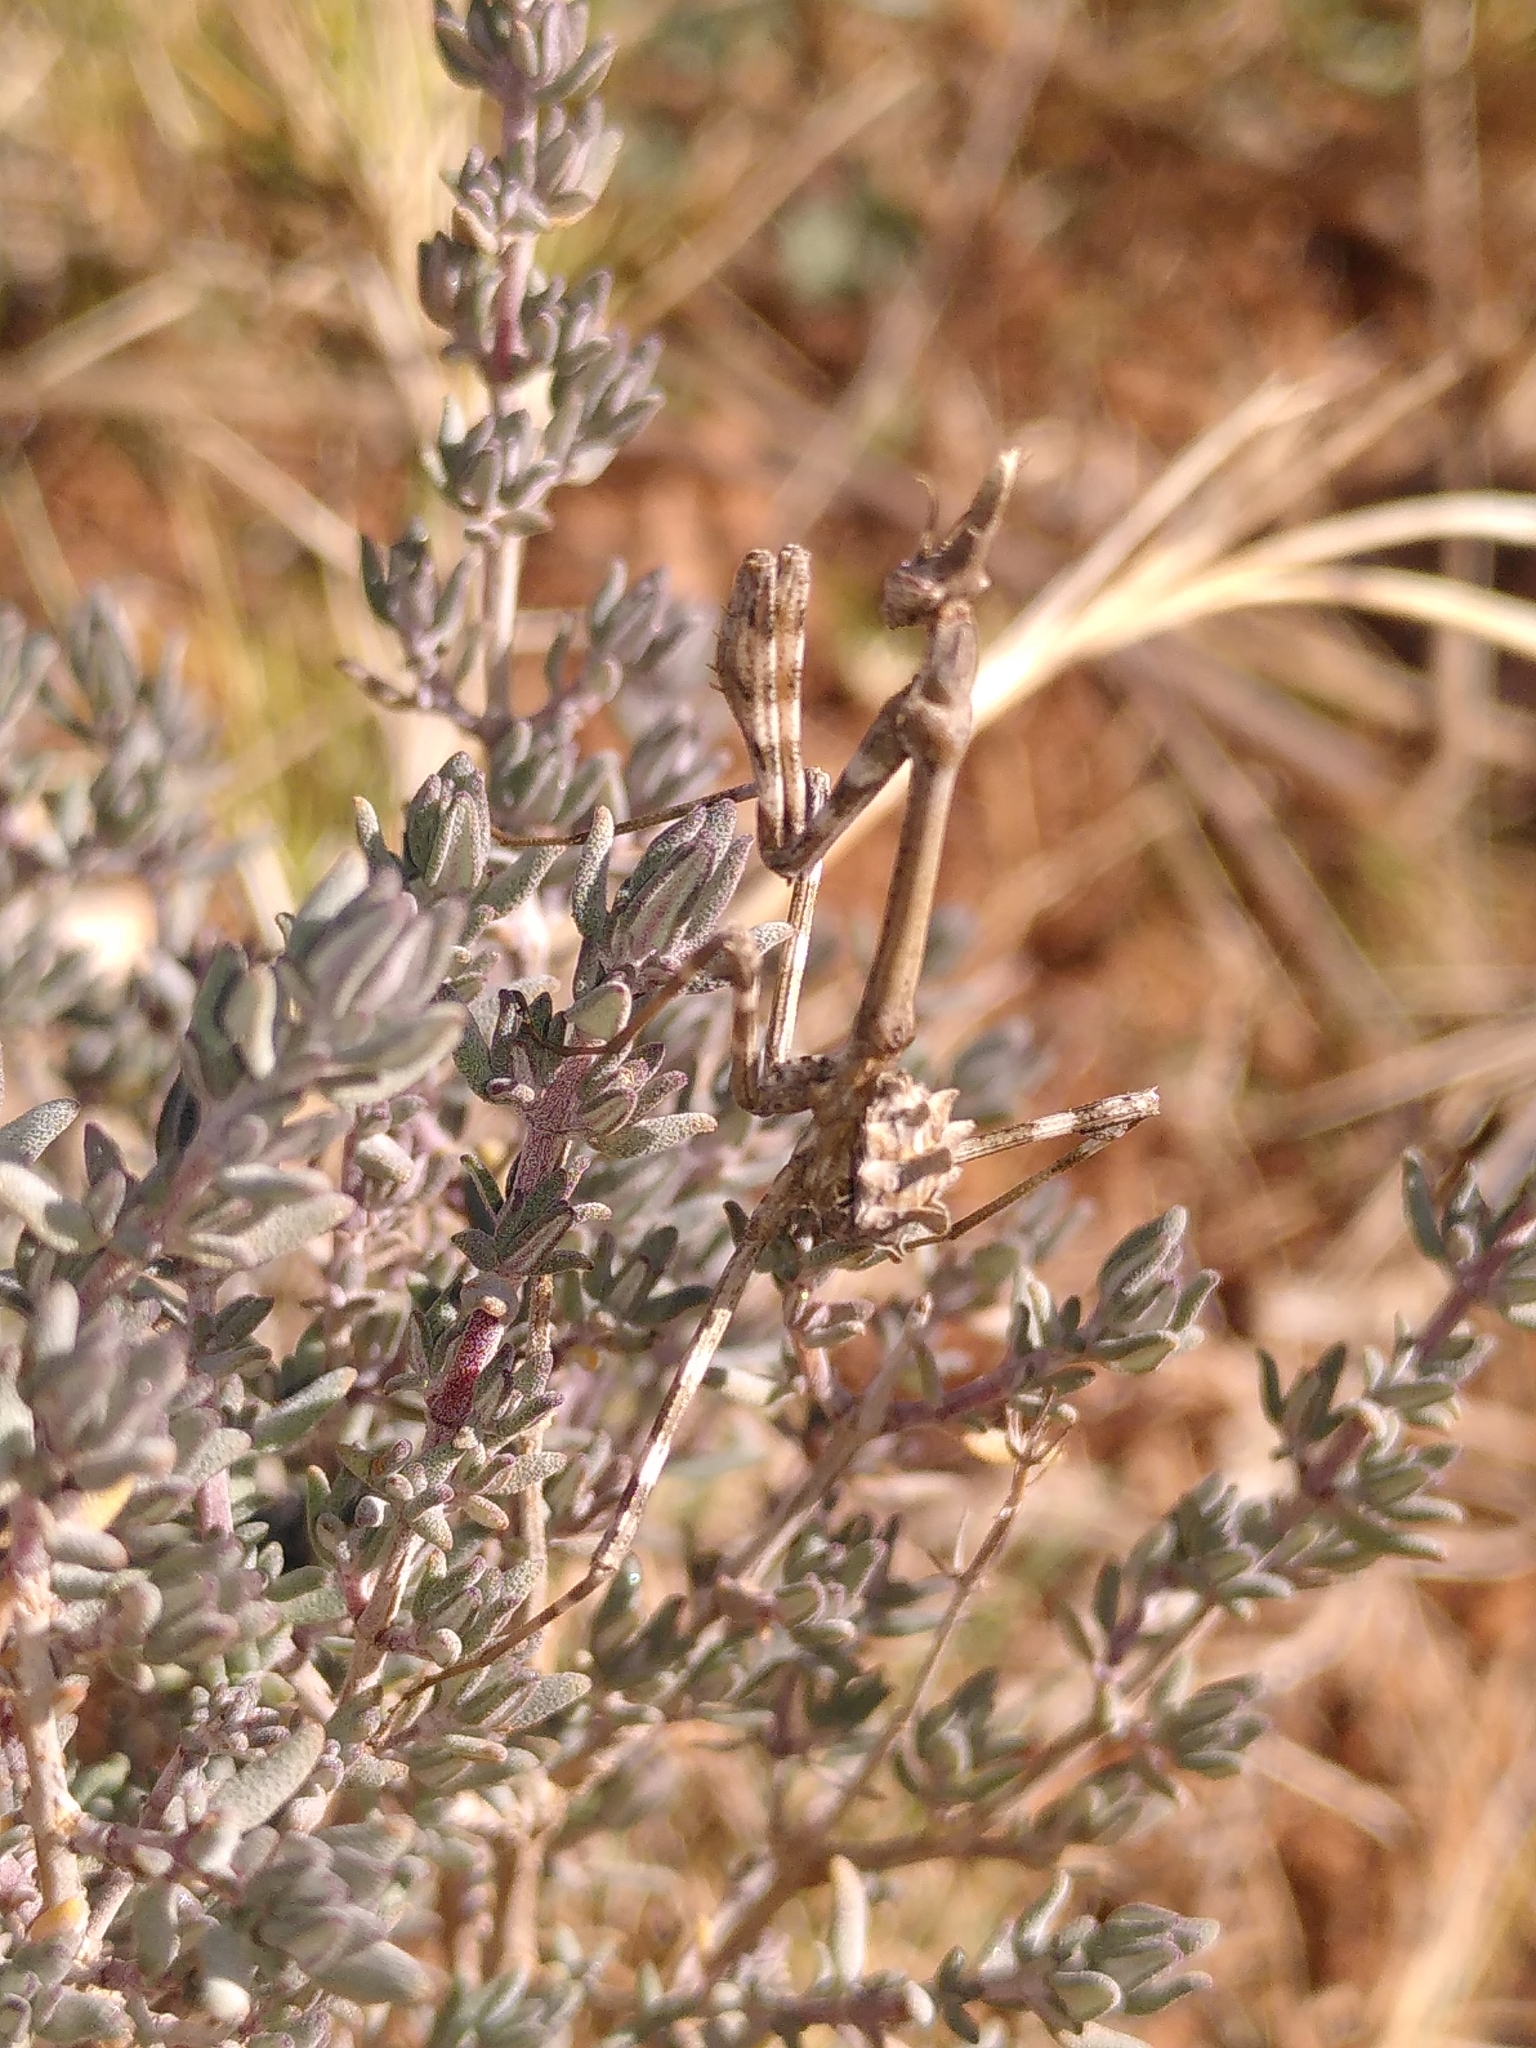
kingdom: Animalia
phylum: Arthropoda
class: Insecta
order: Mantodea
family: Empusidae
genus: Empusa
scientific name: Empusa pennata
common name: Conehead mantis
